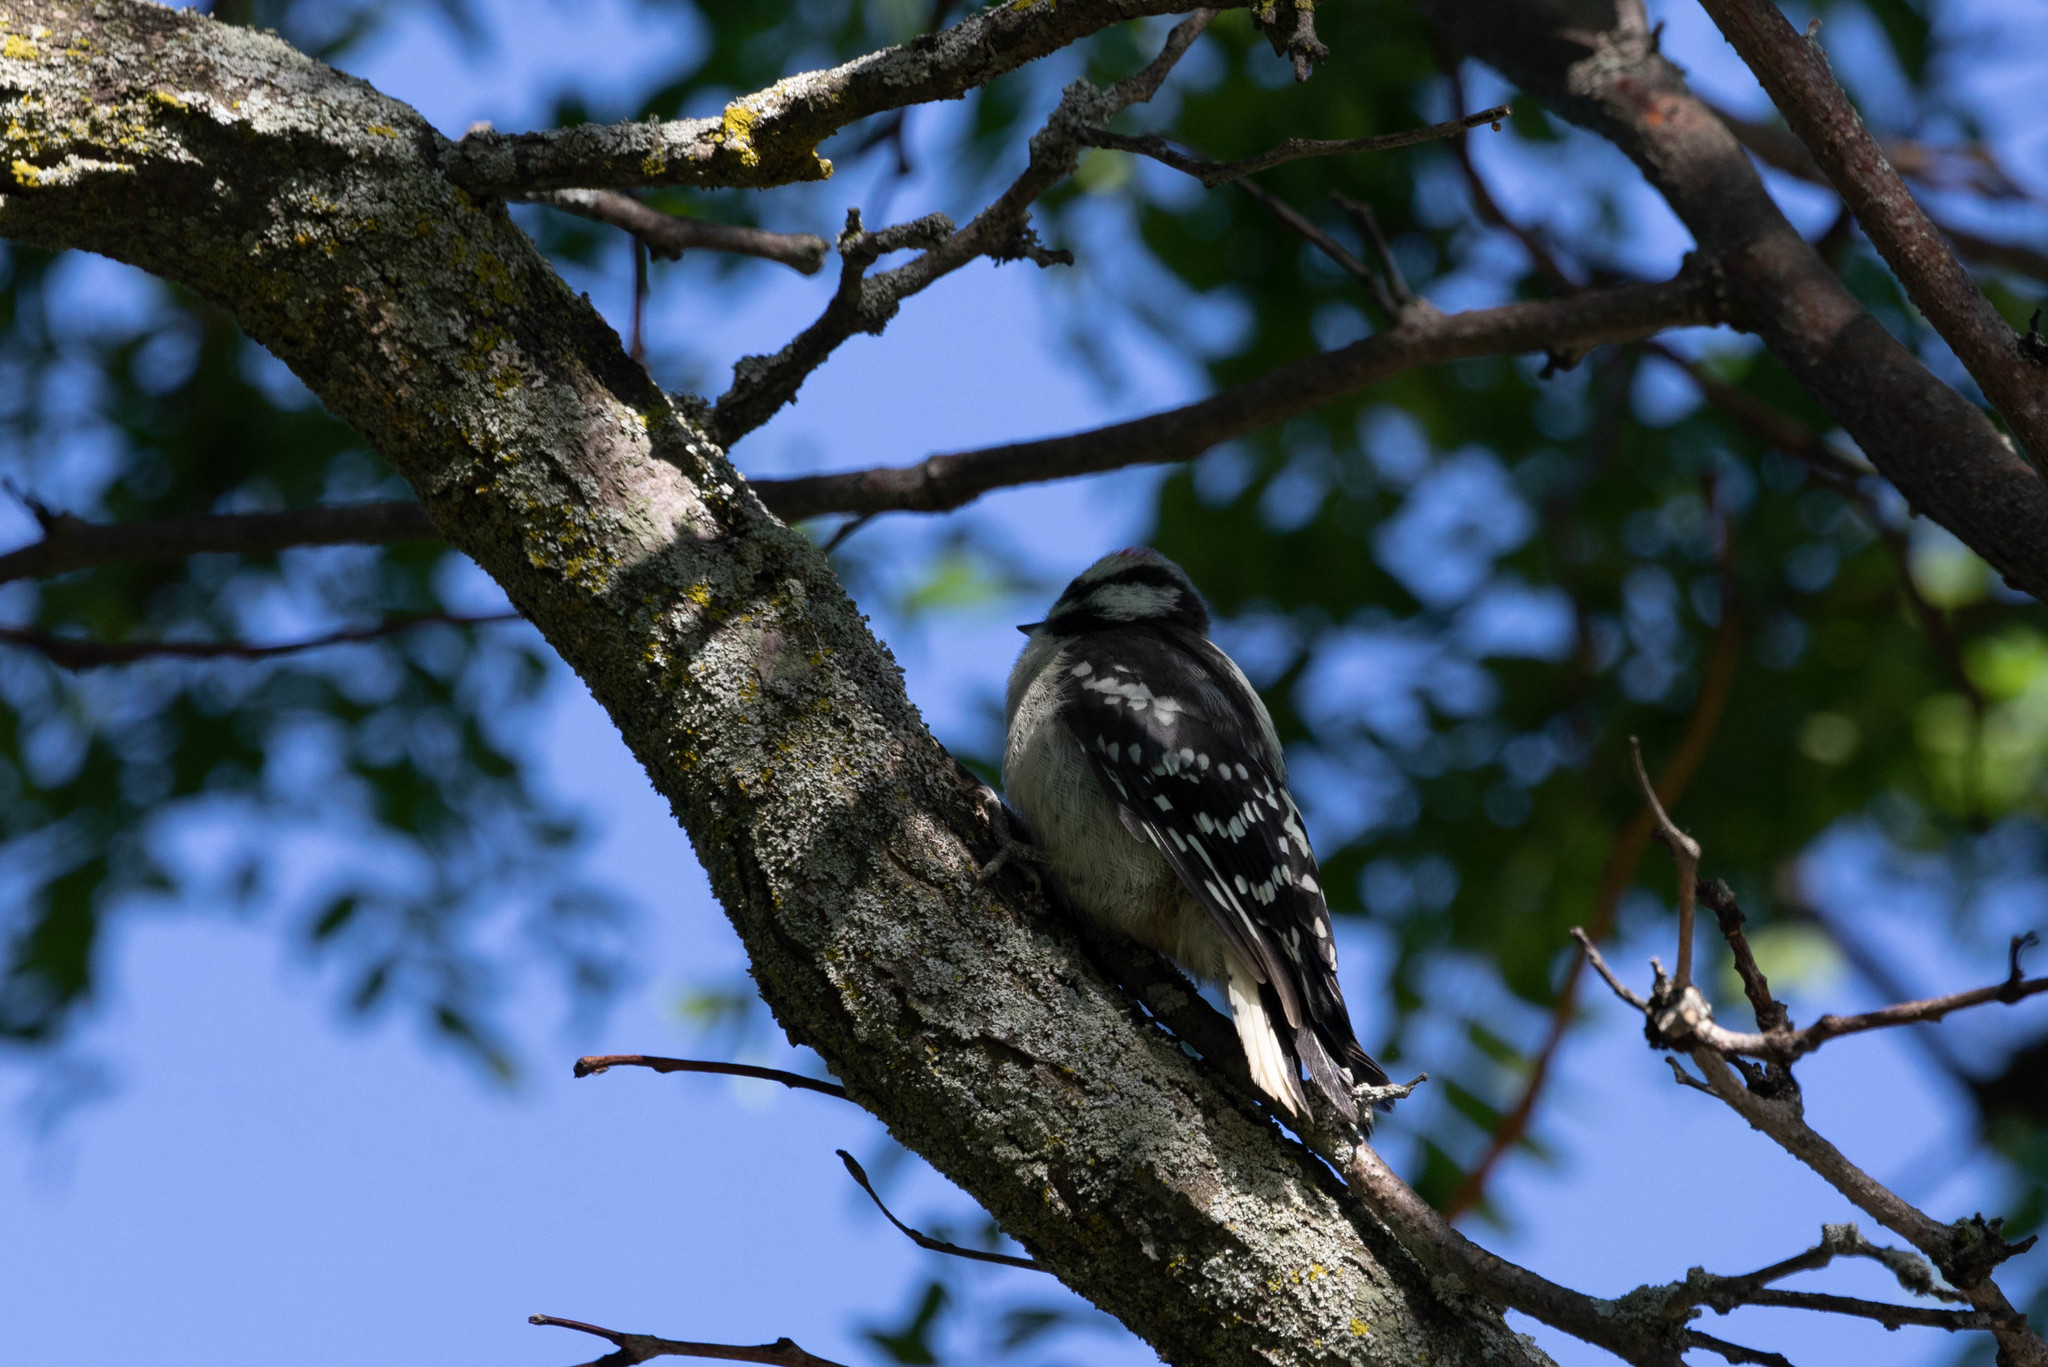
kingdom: Animalia
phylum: Chordata
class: Aves
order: Piciformes
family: Picidae
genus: Dryobates
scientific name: Dryobates pubescens
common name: Downy woodpecker
